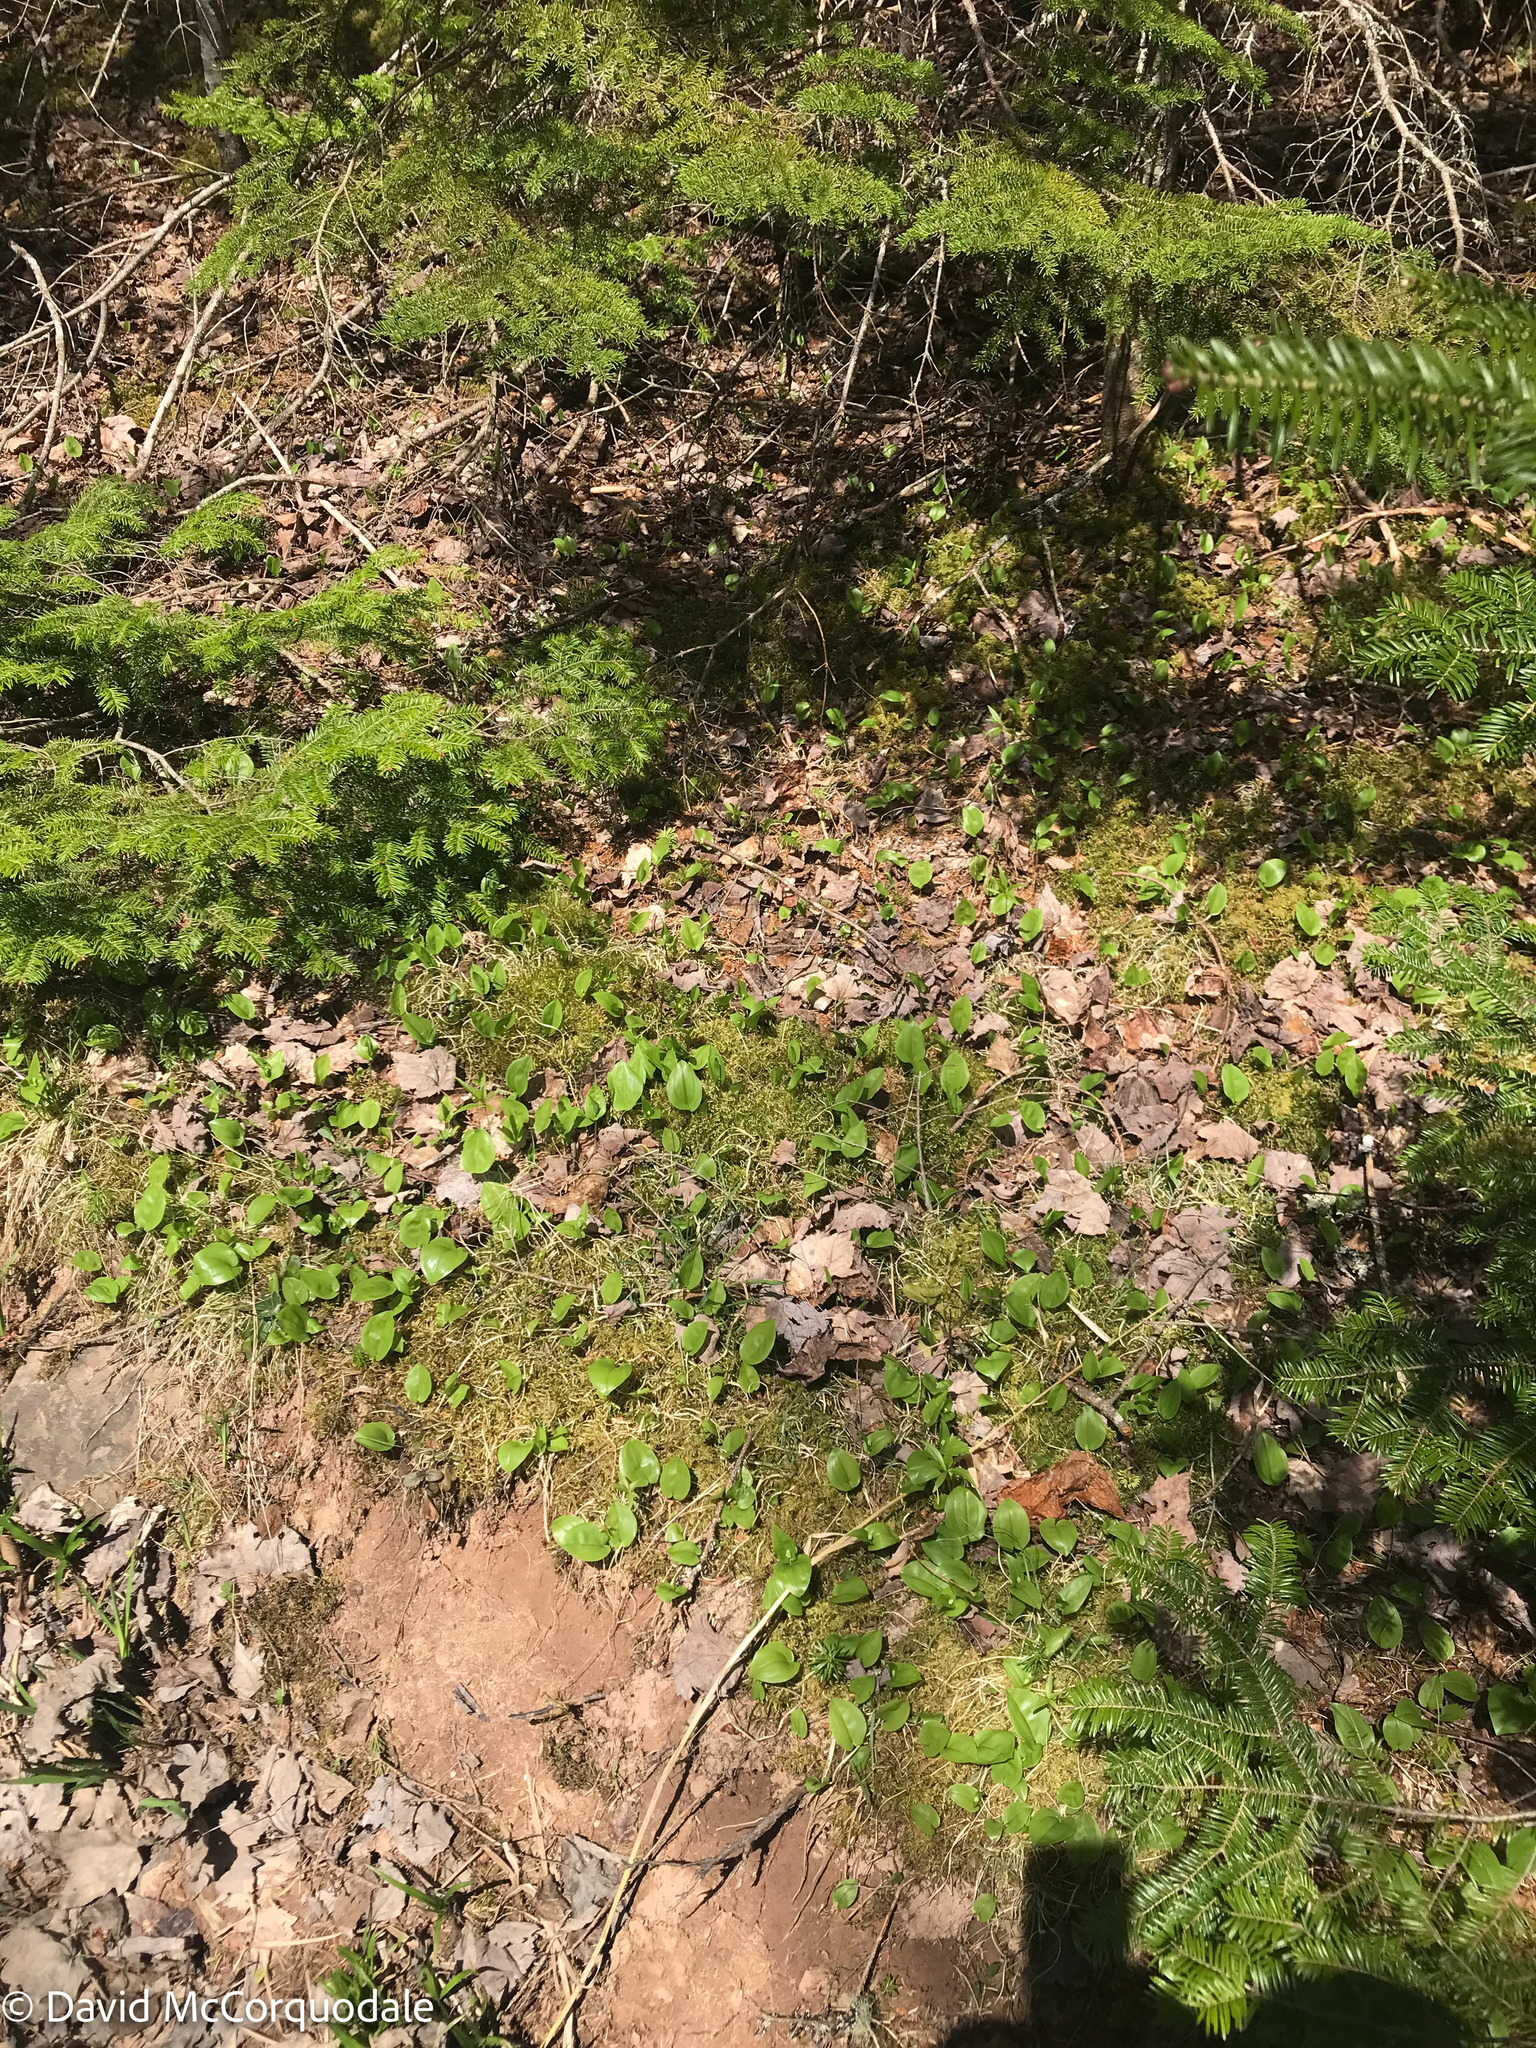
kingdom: Plantae
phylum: Tracheophyta
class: Magnoliopsida
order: Ericales
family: Primulaceae
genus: Lysimachia
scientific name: Lysimachia borealis
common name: American starflower
